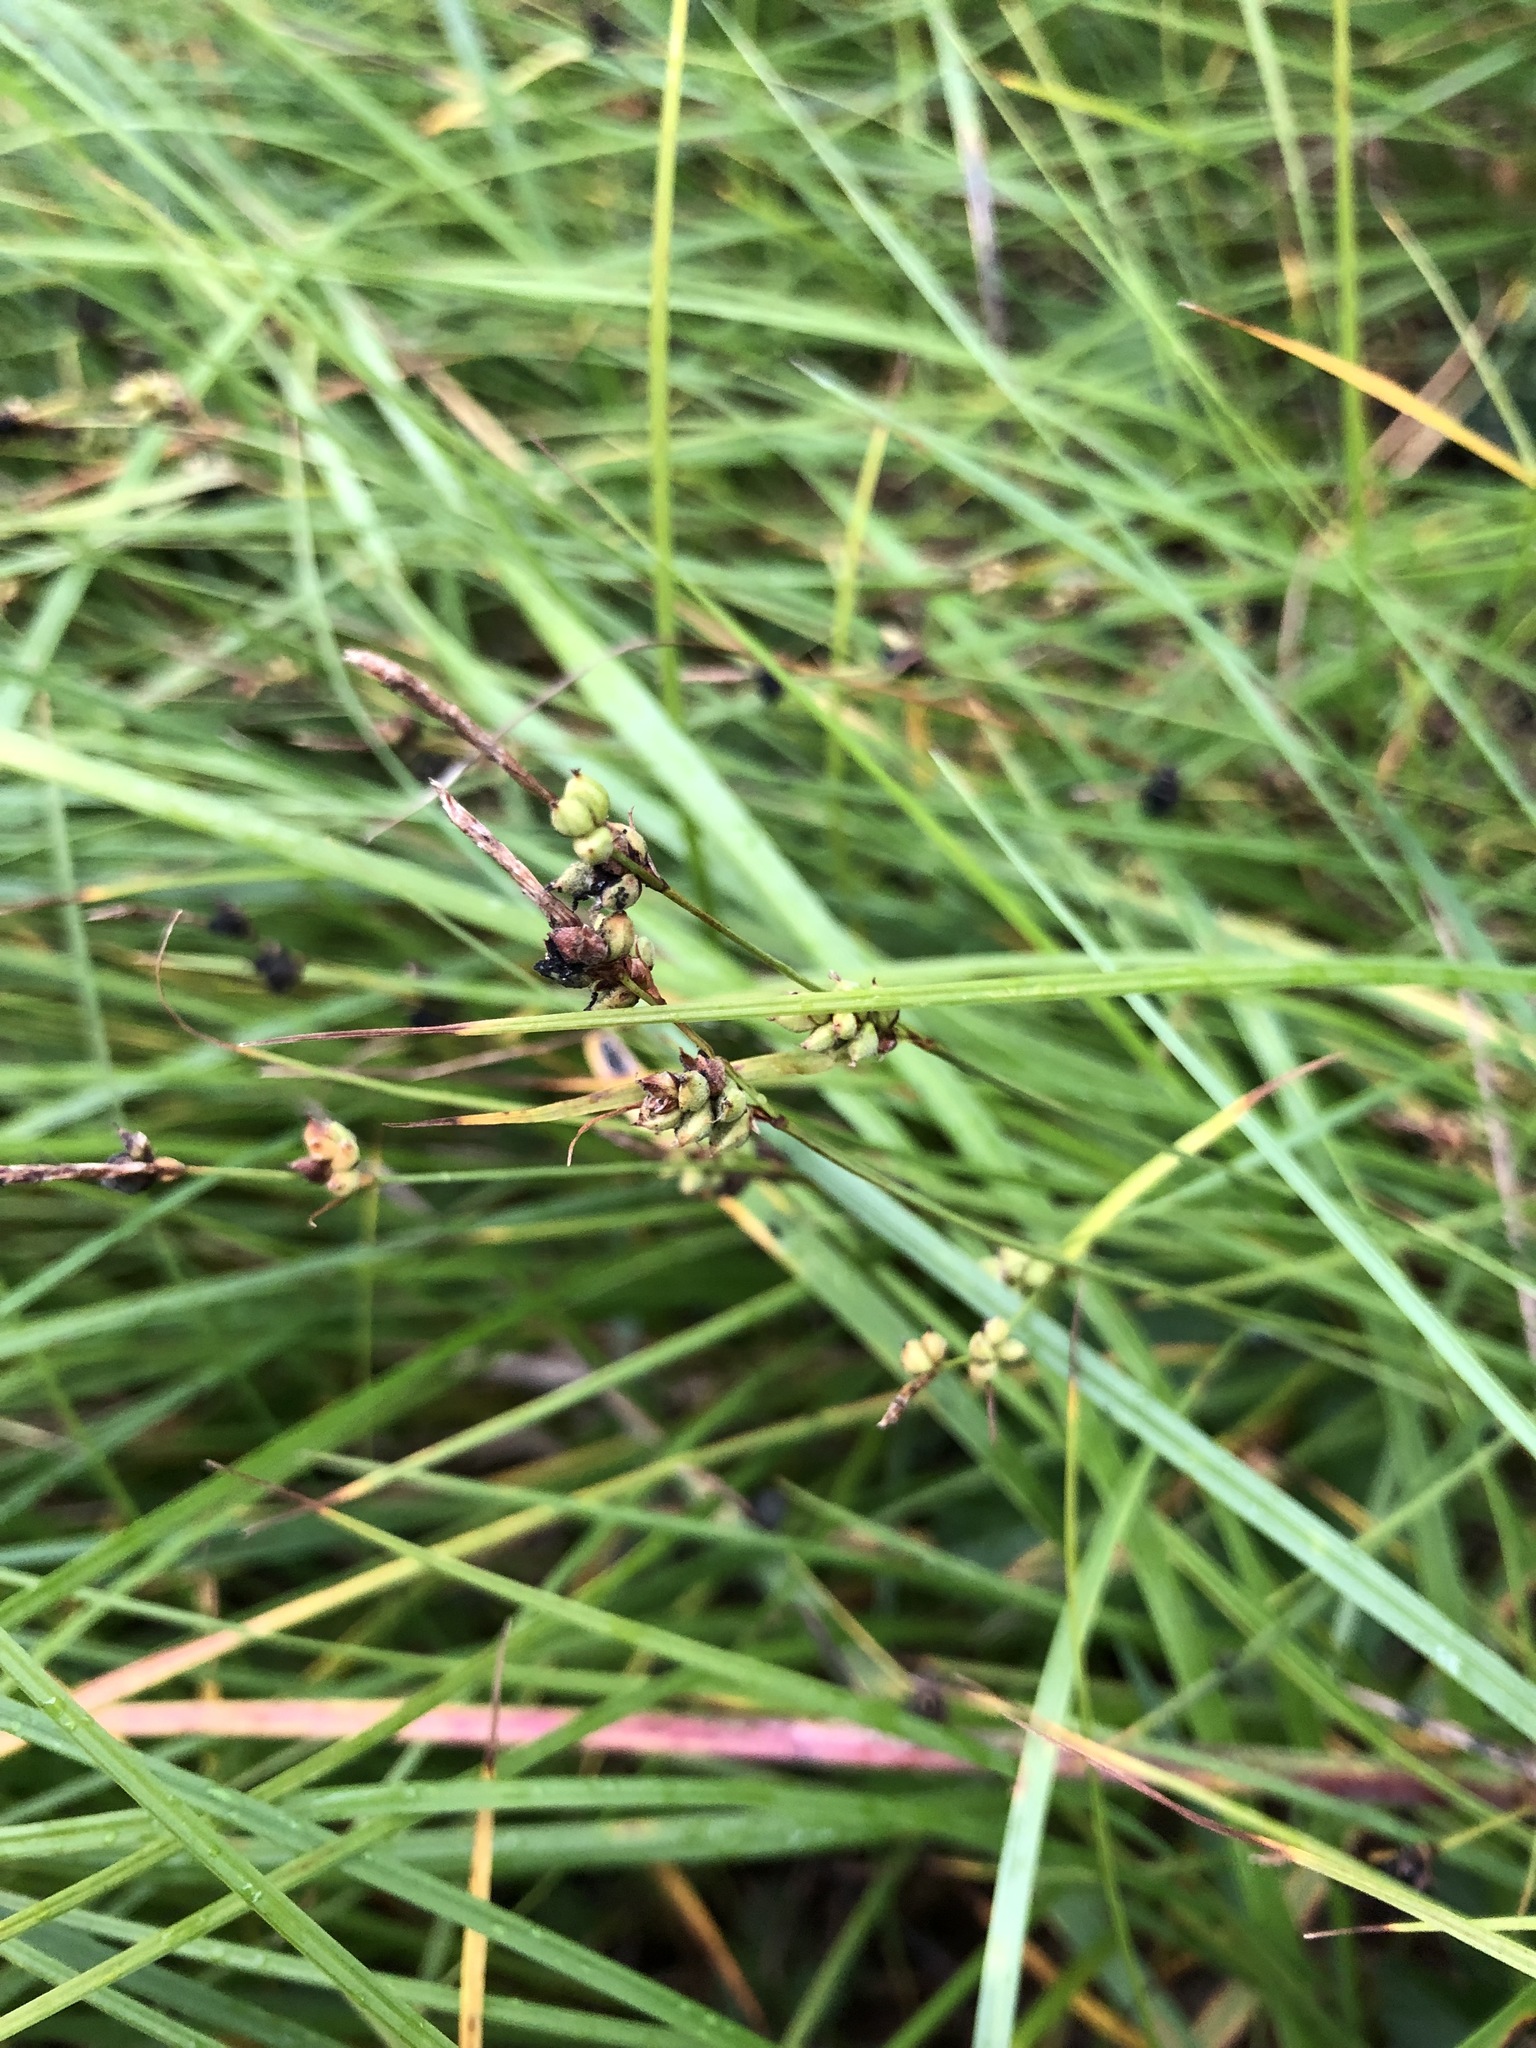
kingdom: Plantae
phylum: Tracheophyta
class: Liliopsida
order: Poales
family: Cyperaceae
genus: Carex
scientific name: Carex globularis
